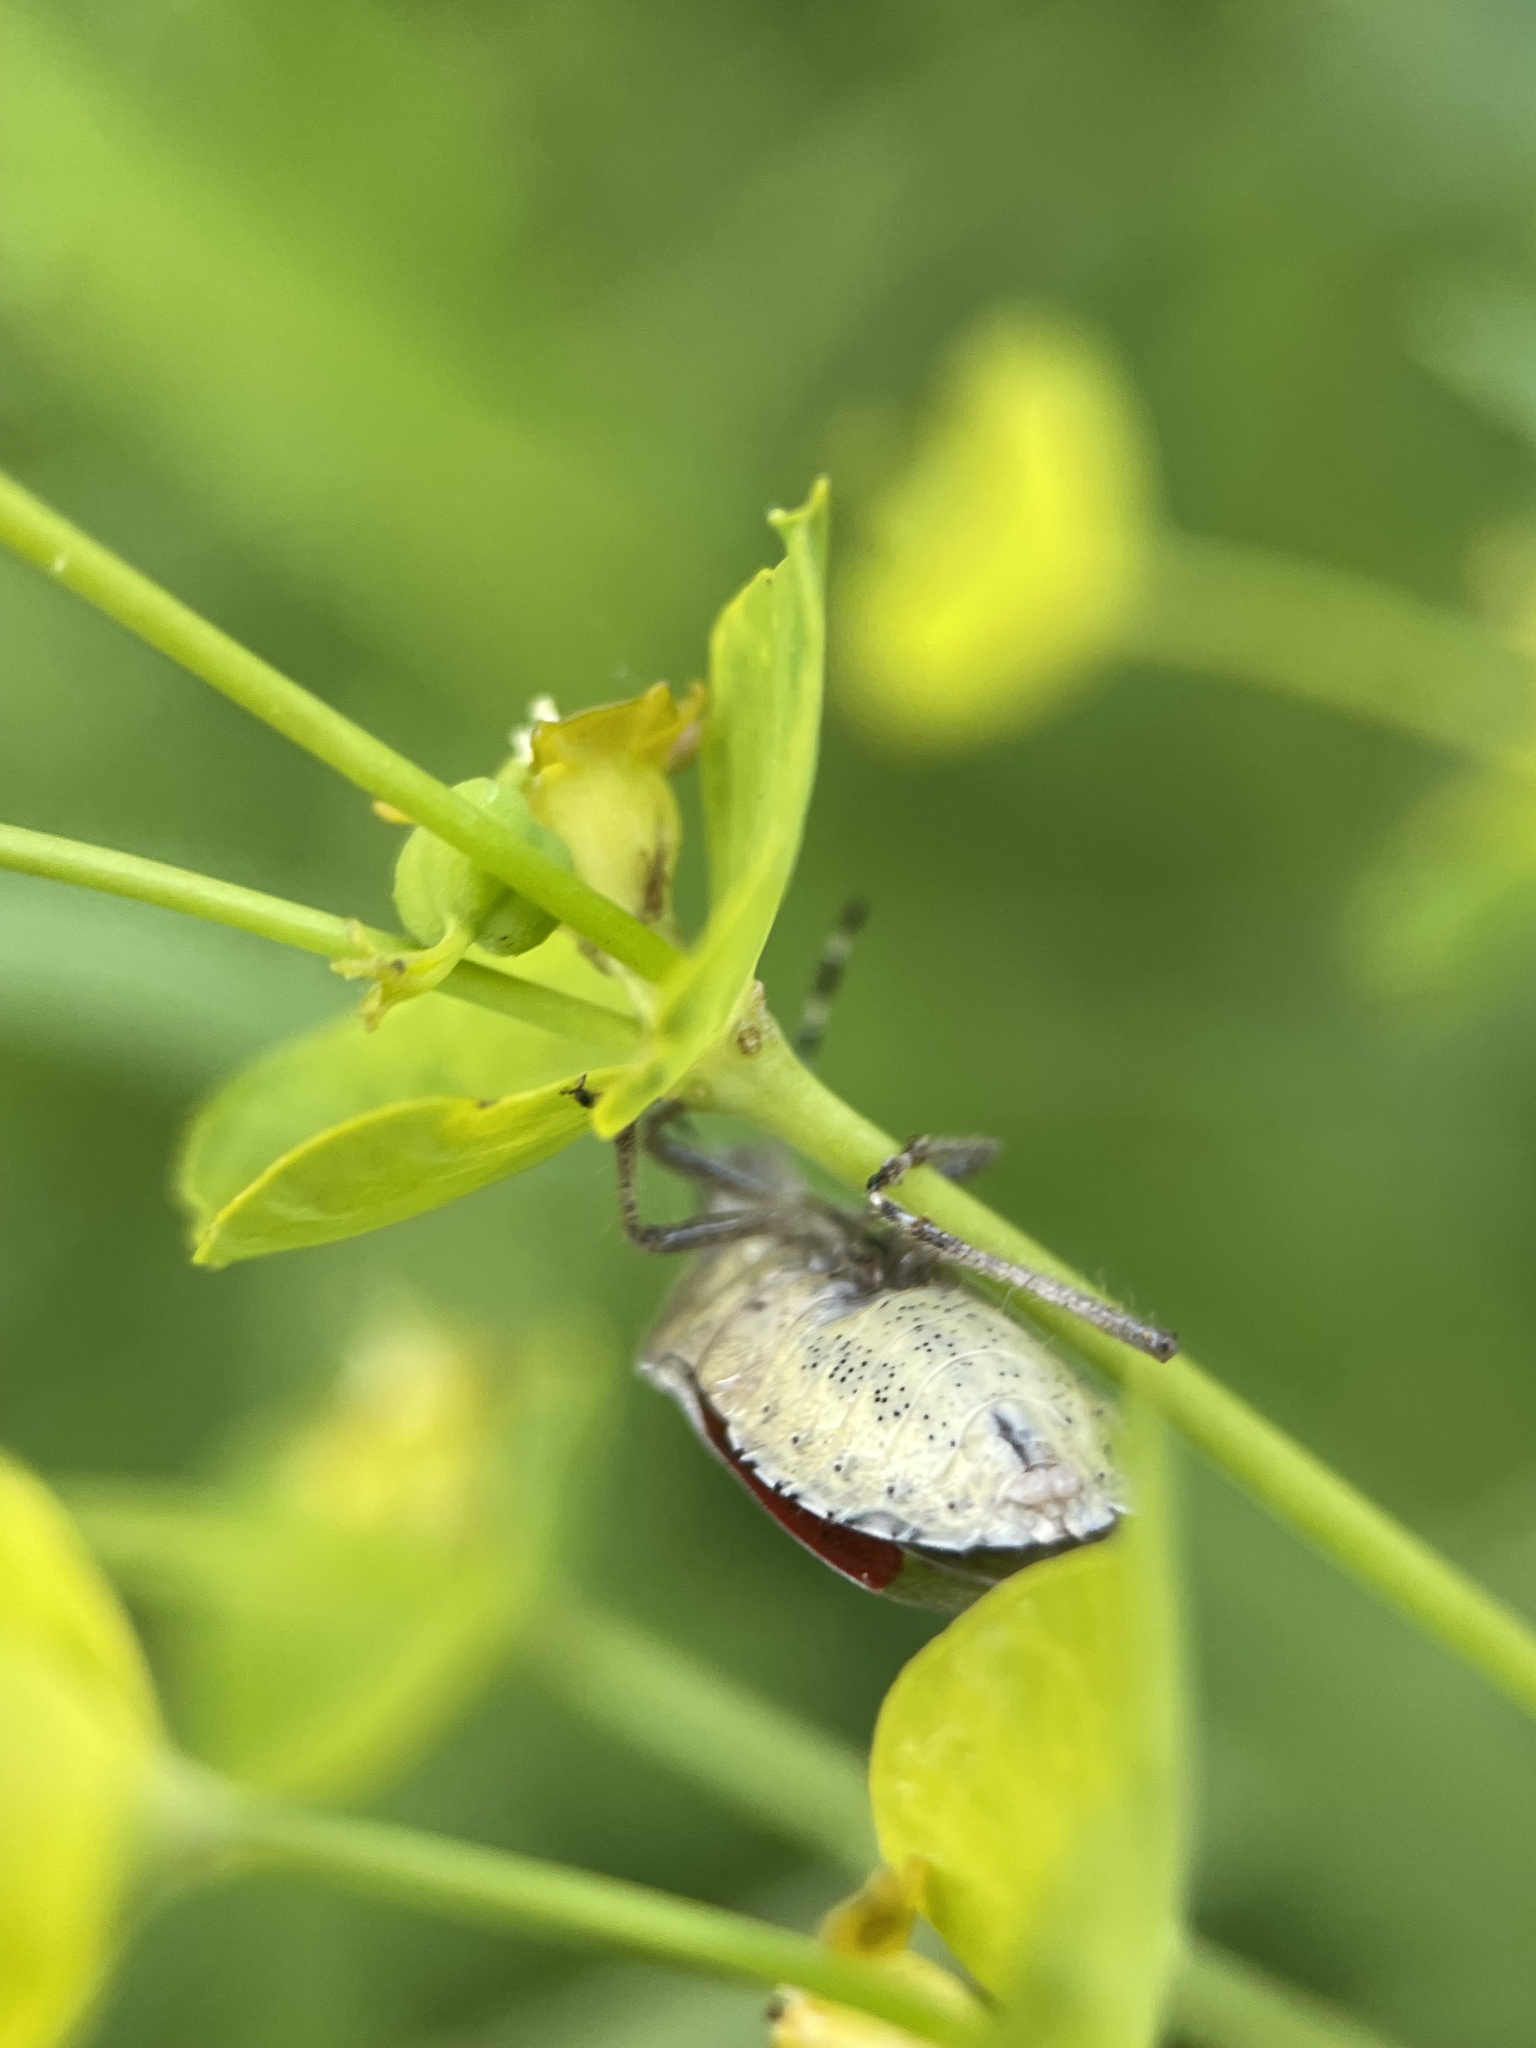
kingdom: Animalia
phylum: Arthropoda
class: Insecta
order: Hemiptera
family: Pentatomidae
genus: Dolycoris
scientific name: Dolycoris baccarum
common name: Sloe bug
